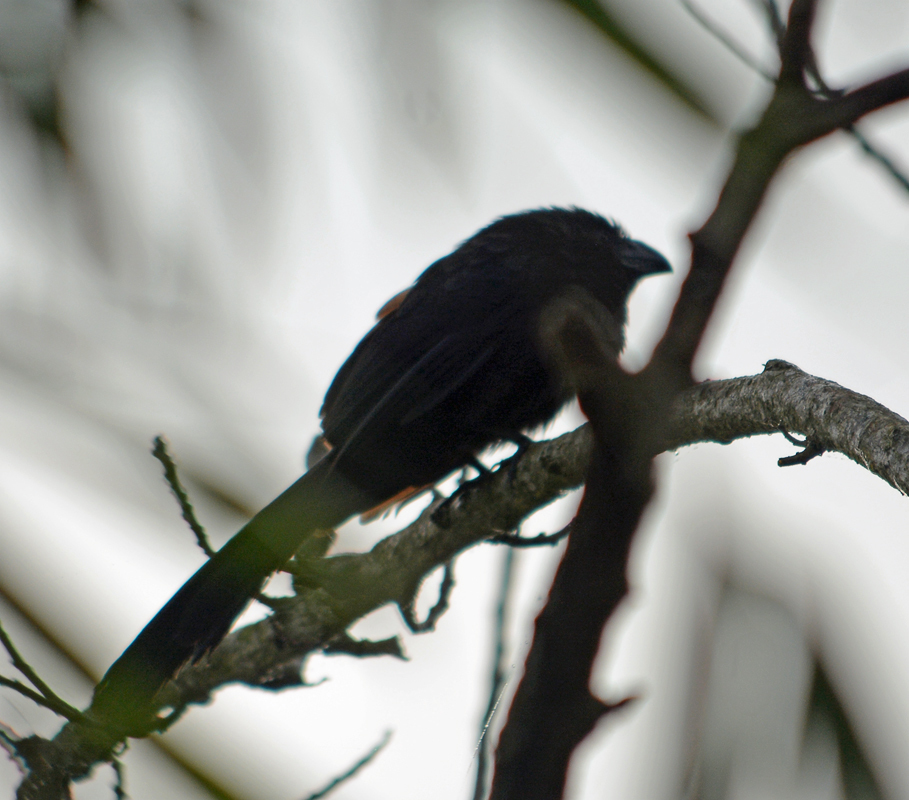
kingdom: Animalia
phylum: Chordata
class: Aves
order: Cuculiformes
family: Cuculidae
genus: Crotophaga
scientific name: Crotophaga sulcirostris
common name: Groove-billed ani
